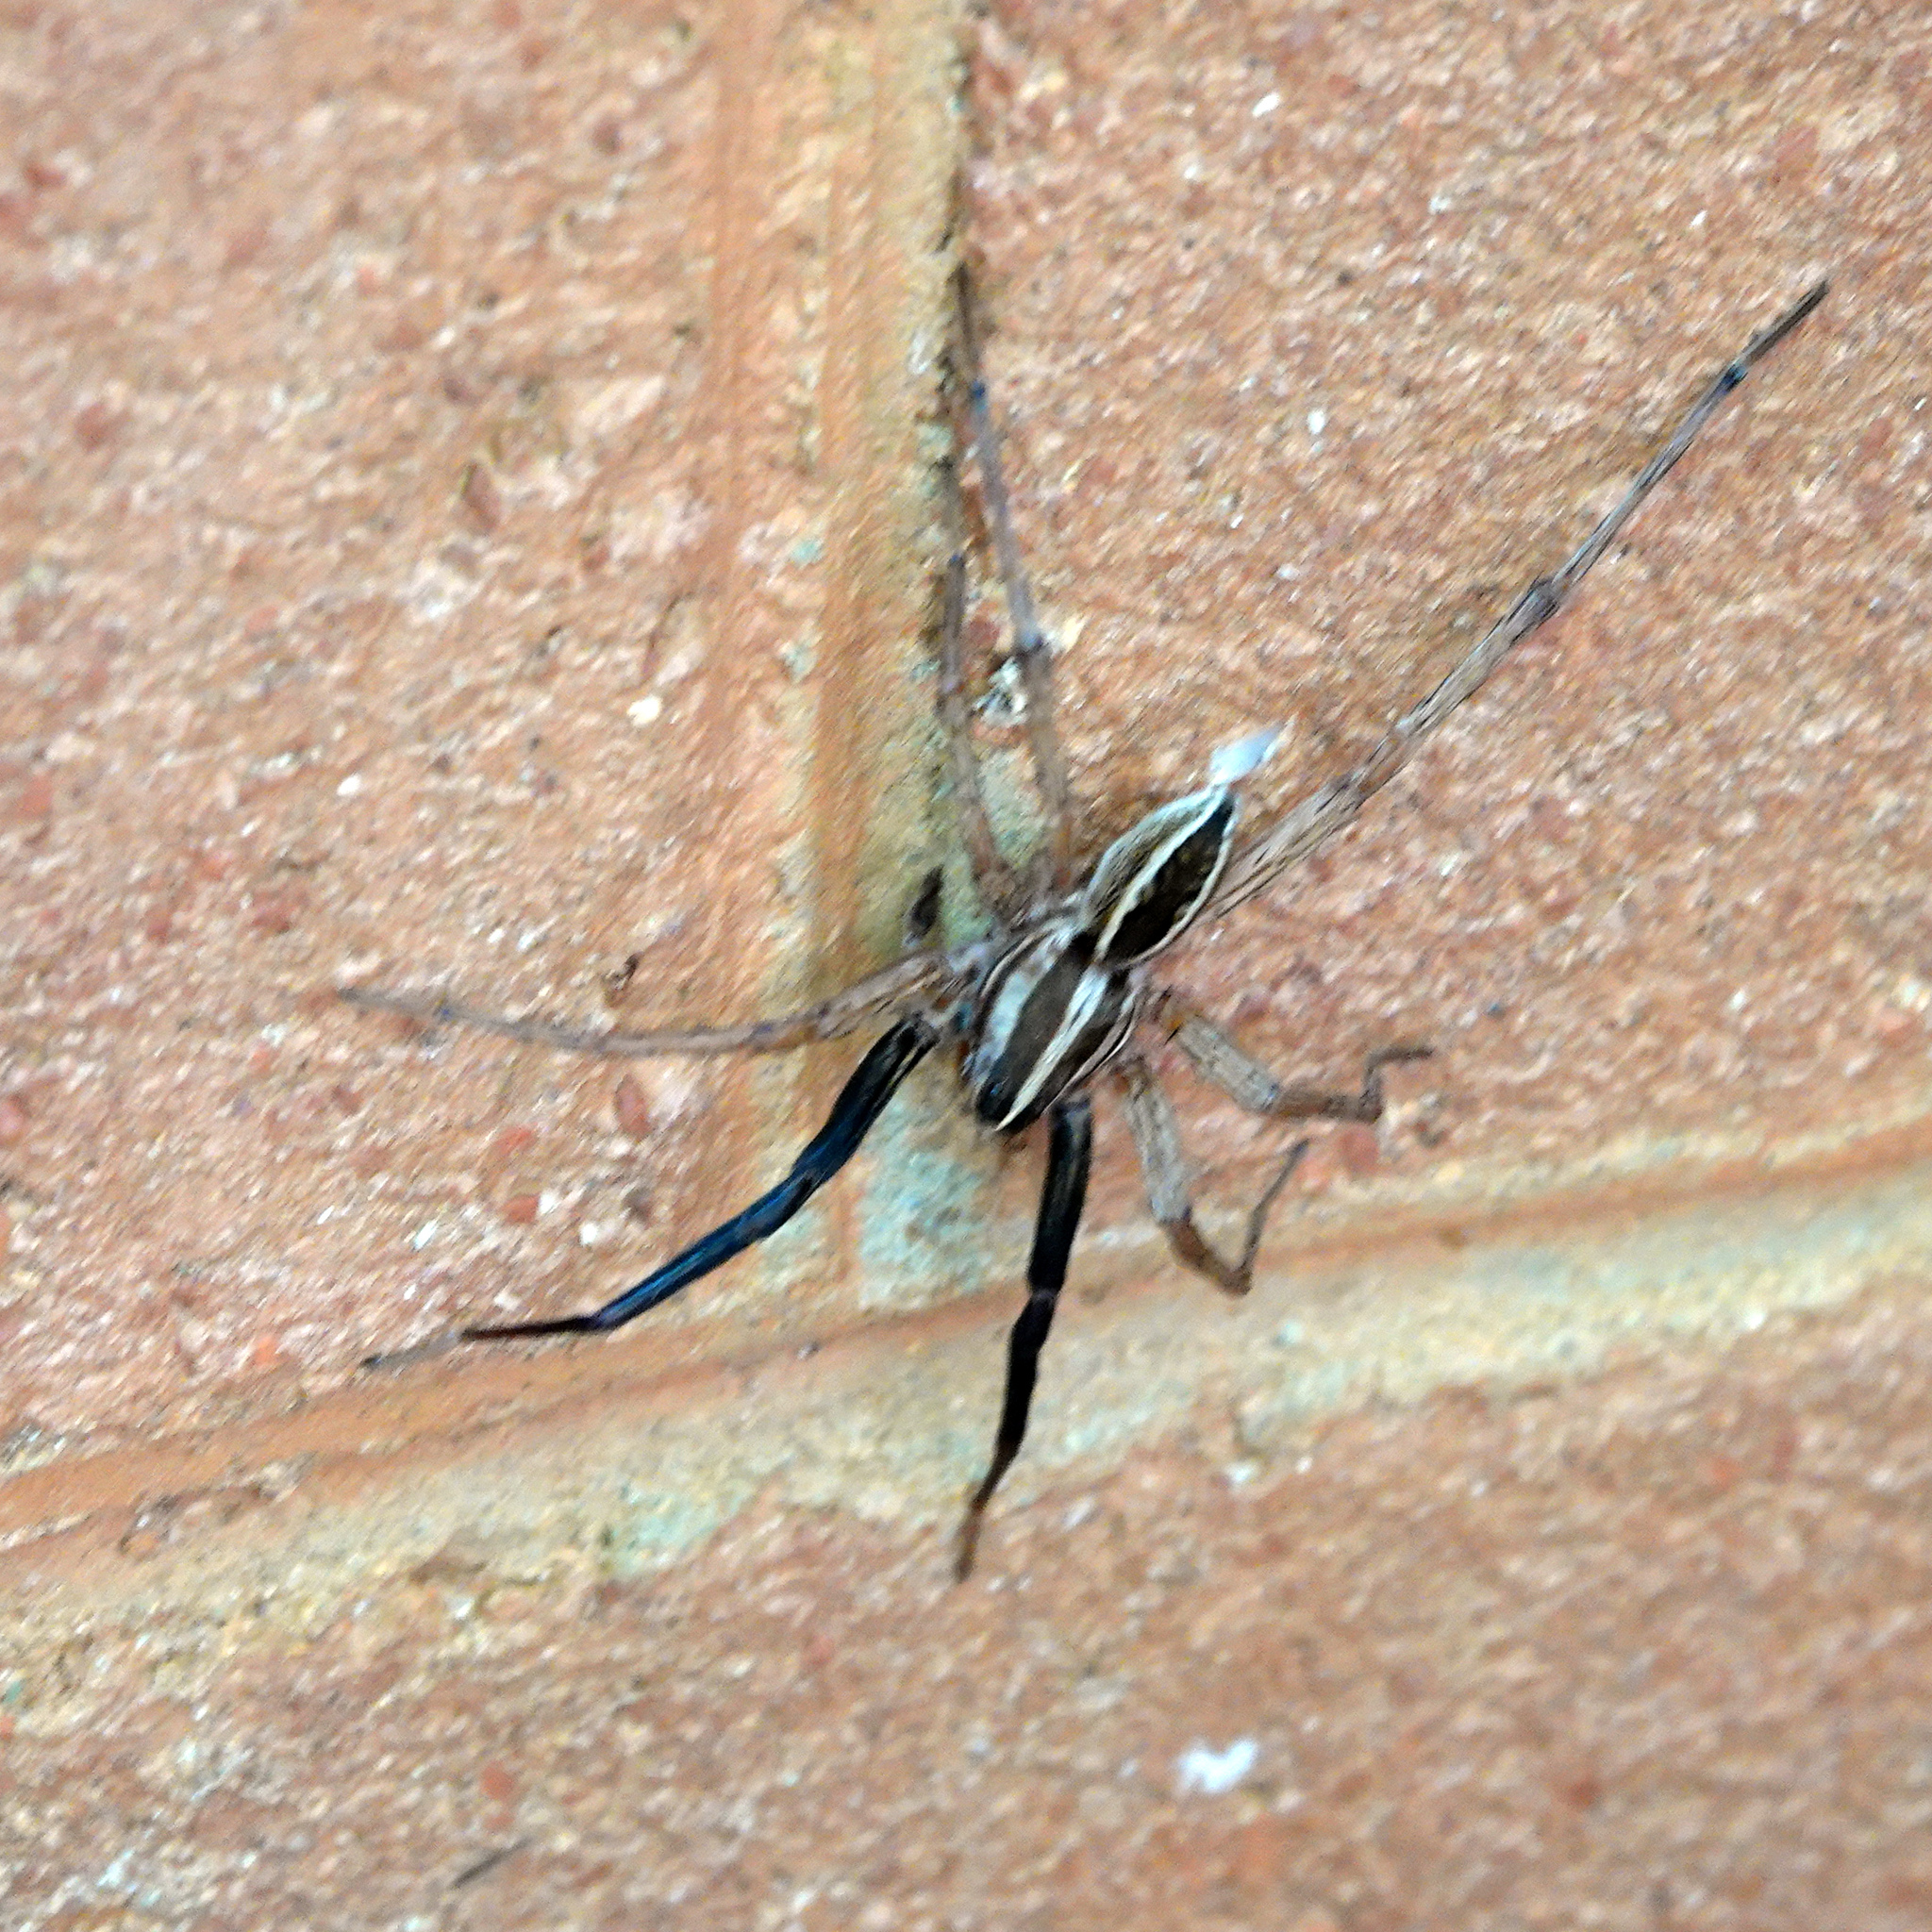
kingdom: Animalia
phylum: Arthropoda
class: Arachnida
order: Araneae
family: Lycosidae
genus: Rabidosa
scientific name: Rabidosa rabida
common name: Rabid wolf spider
